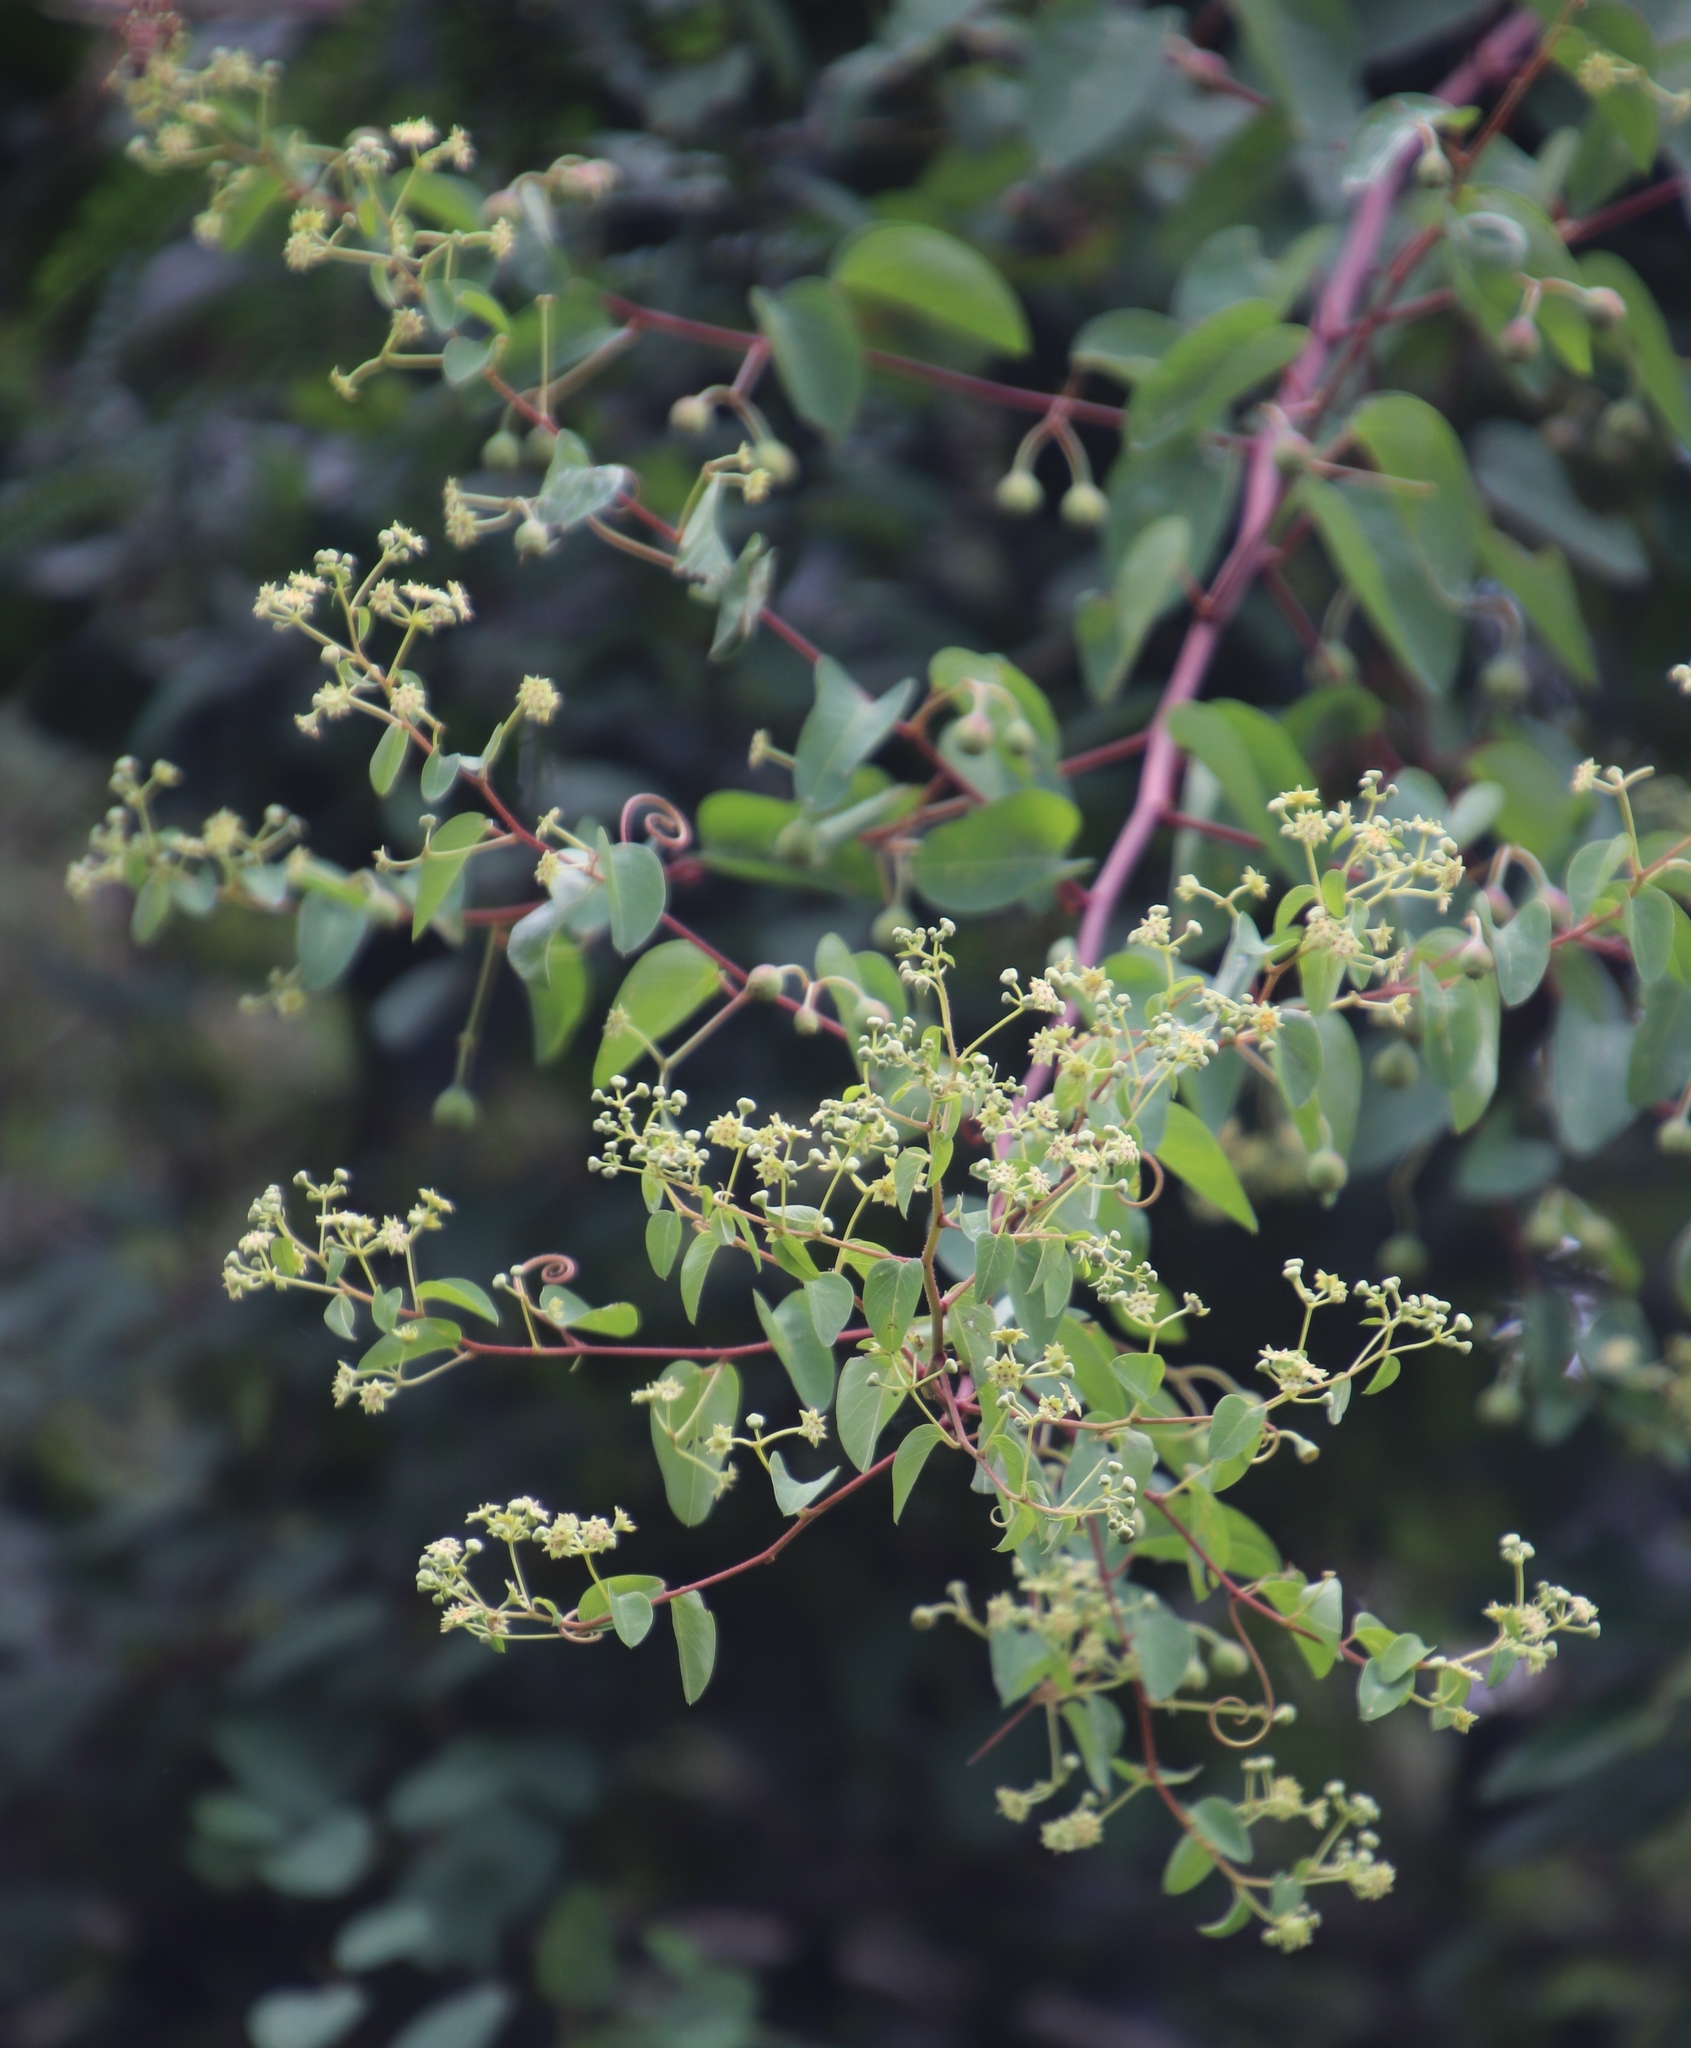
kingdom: Plantae
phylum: Tracheophyta
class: Magnoliopsida
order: Rosales
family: Rhamnaceae
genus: Helinus
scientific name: Helinus integrifolius
